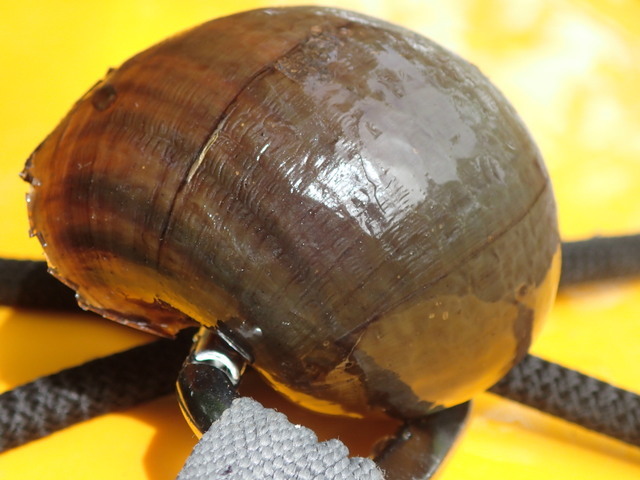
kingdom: Animalia
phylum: Mollusca
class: Gastropoda
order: Architaenioglossa
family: Ampullariidae
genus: Pomacea
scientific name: Pomacea maculata
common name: Giant applesnail
